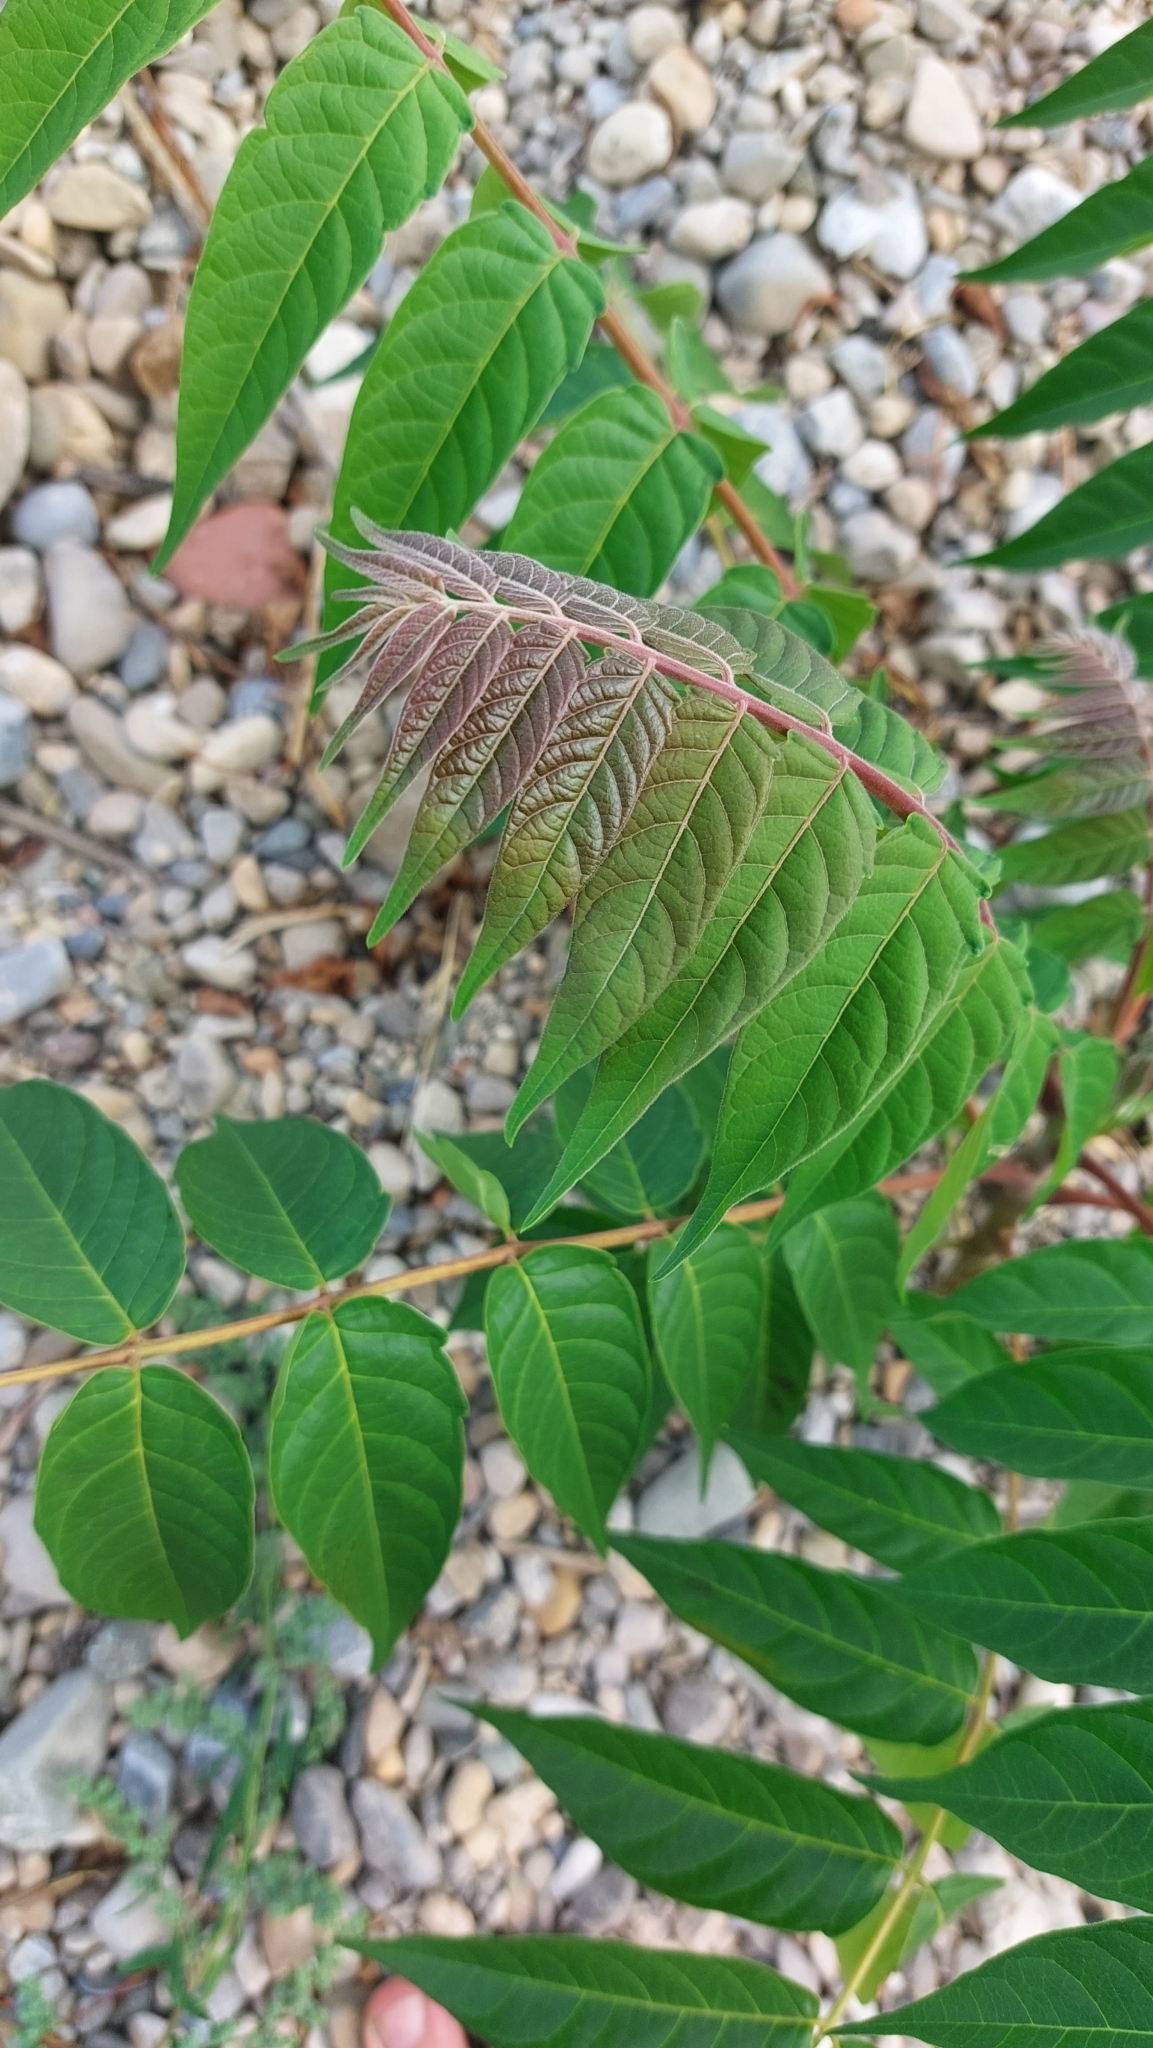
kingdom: Plantae
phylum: Tracheophyta
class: Magnoliopsida
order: Sapindales
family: Simaroubaceae
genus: Ailanthus
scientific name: Ailanthus altissima
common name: Tree-of-heaven
